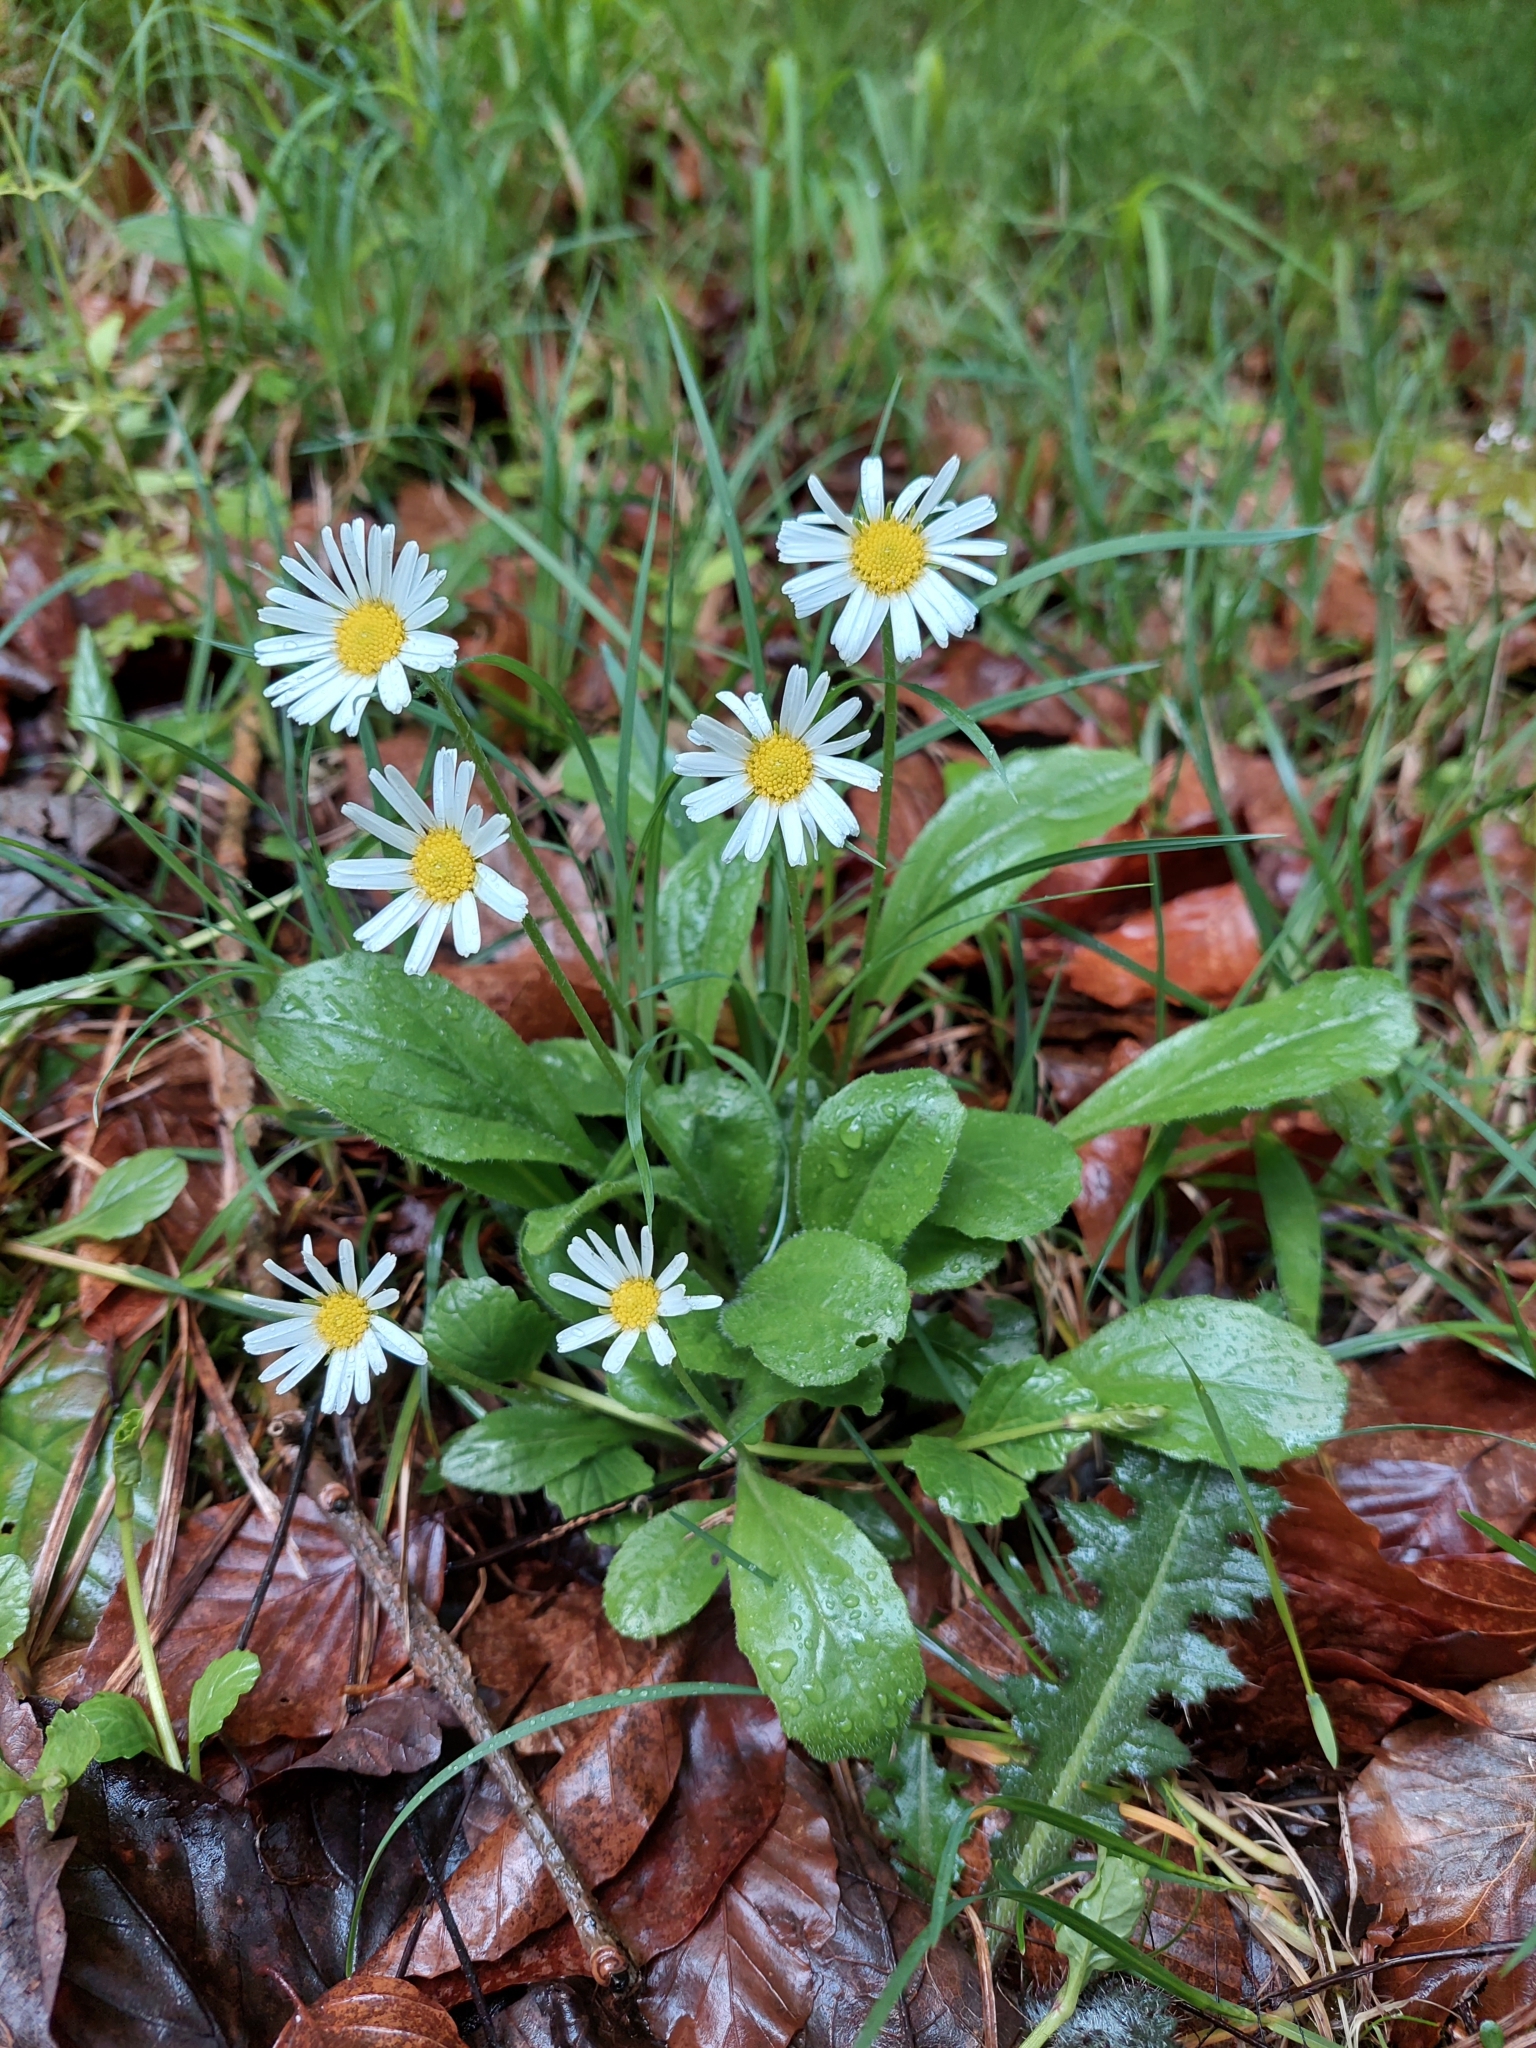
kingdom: Plantae
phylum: Tracheophyta
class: Magnoliopsida
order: Asterales
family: Asteraceae
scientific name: Asteraceae
